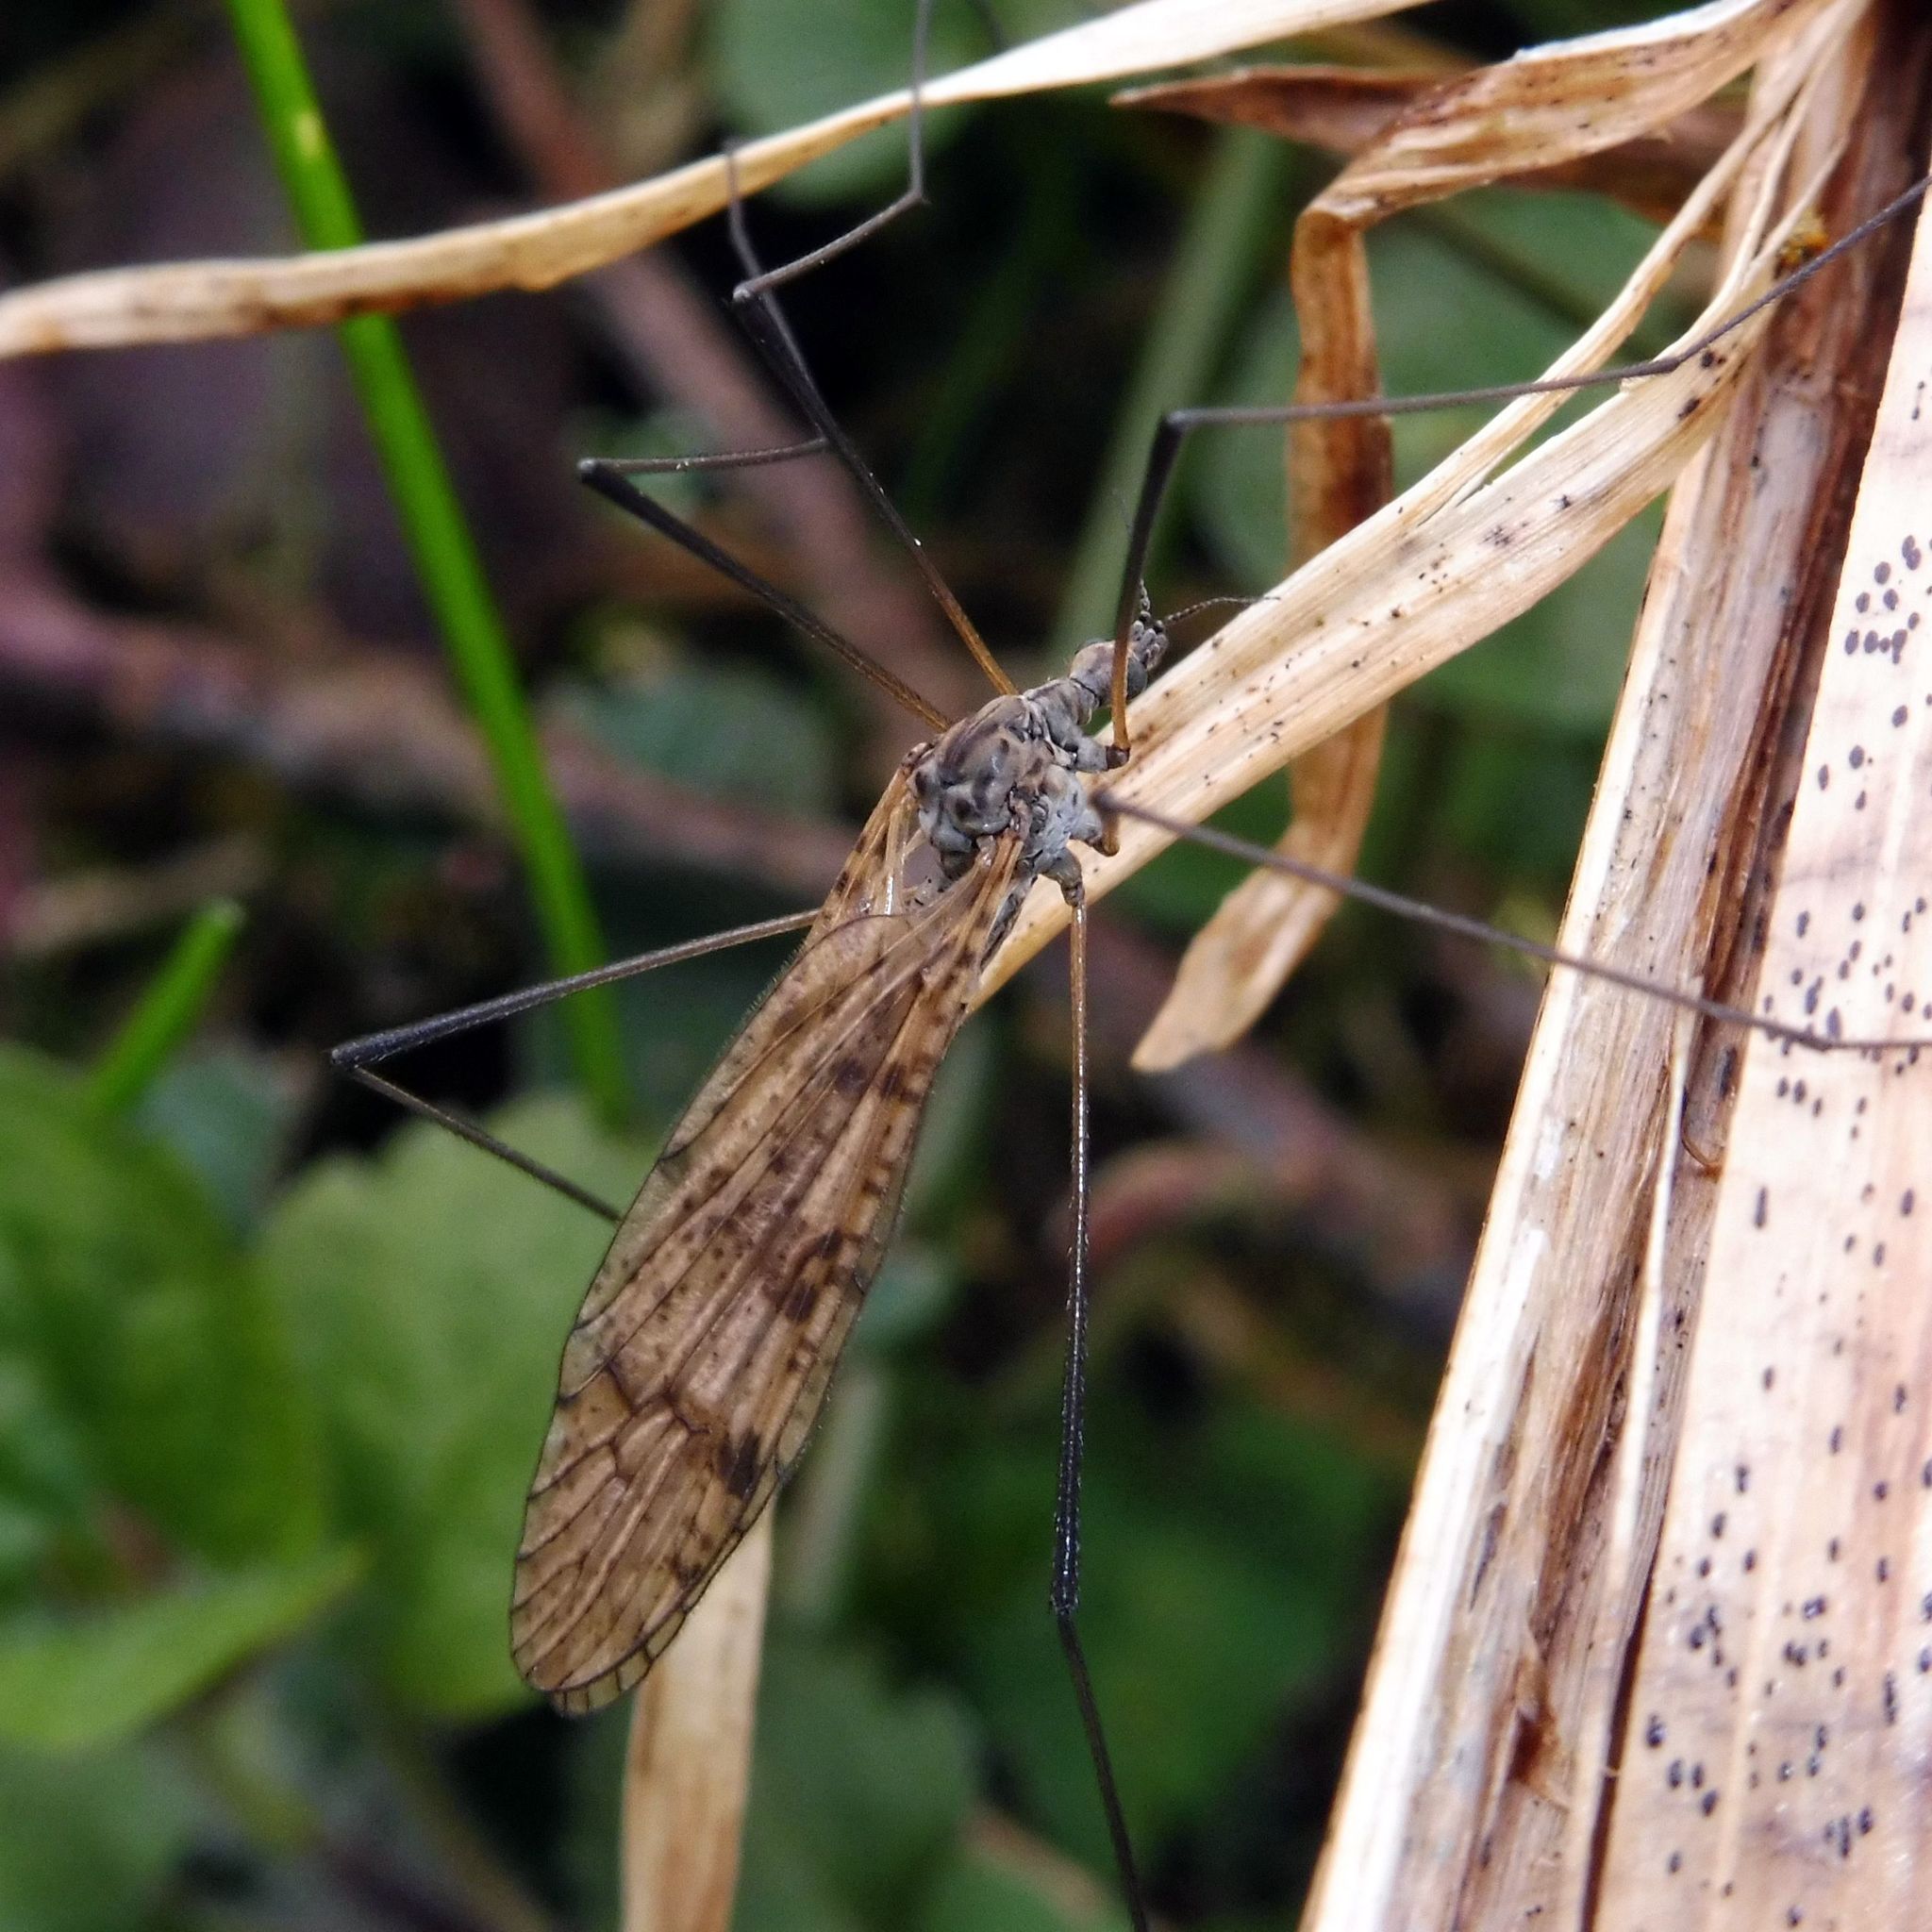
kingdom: Animalia
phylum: Arthropoda
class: Insecta
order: Diptera
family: Limoniidae
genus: Limnophila
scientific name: Limnophila schranki
